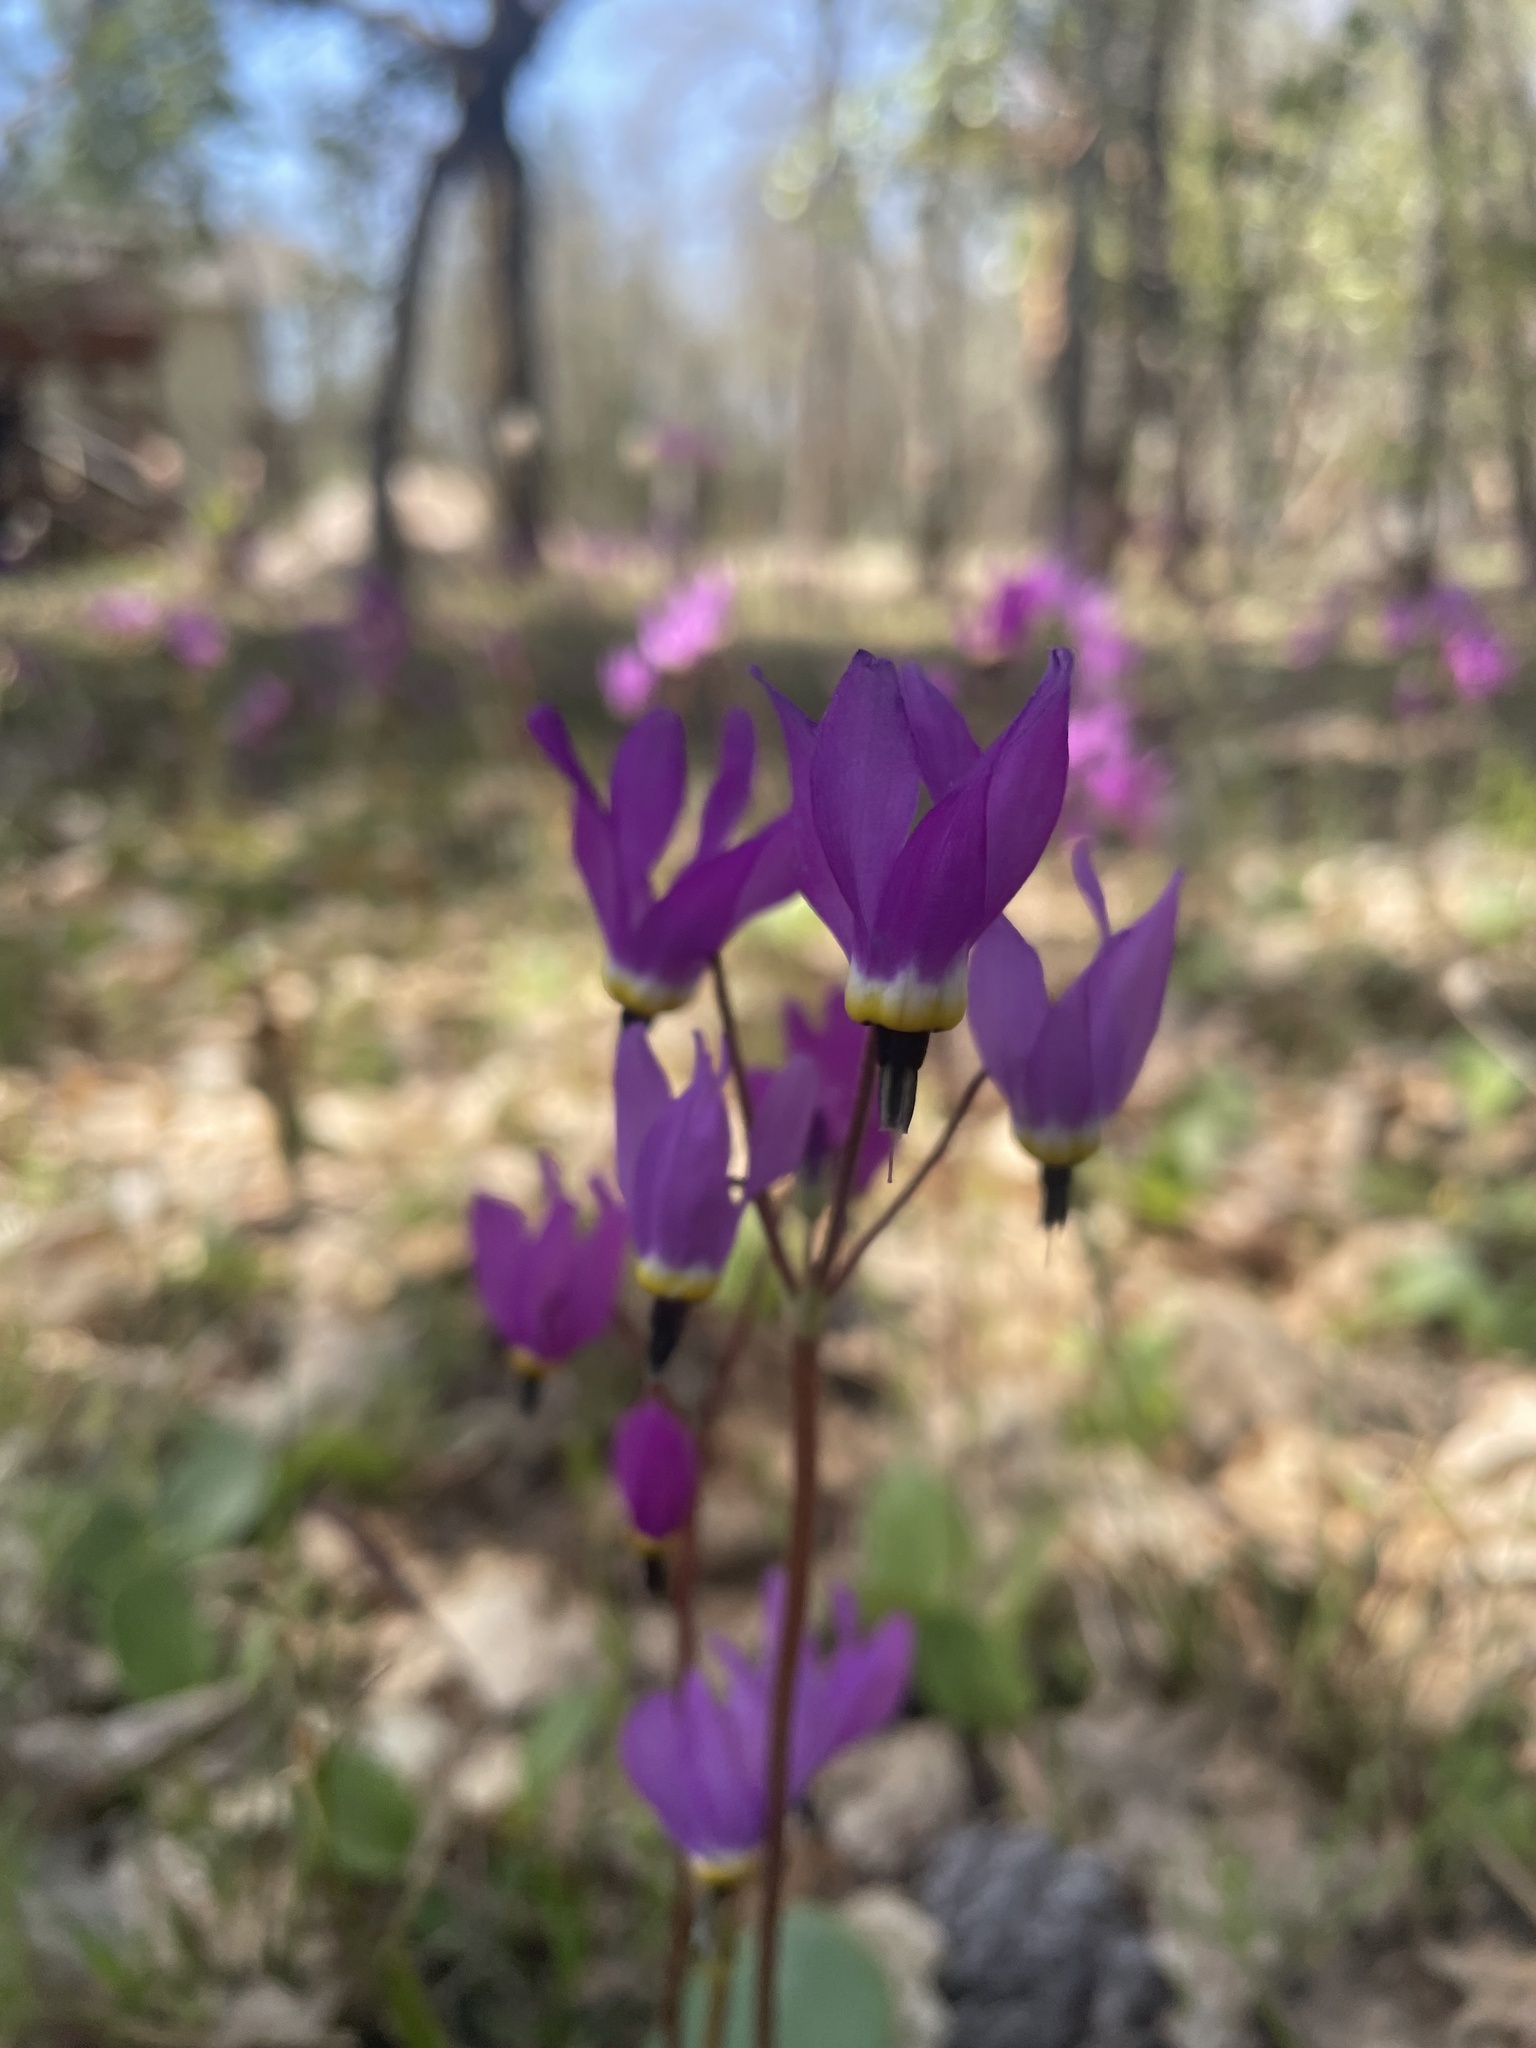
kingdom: Plantae
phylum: Tracheophyta
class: Magnoliopsida
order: Ericales
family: Primulaceae
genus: Dodecatheon
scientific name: Dodecatheon hendersonii
